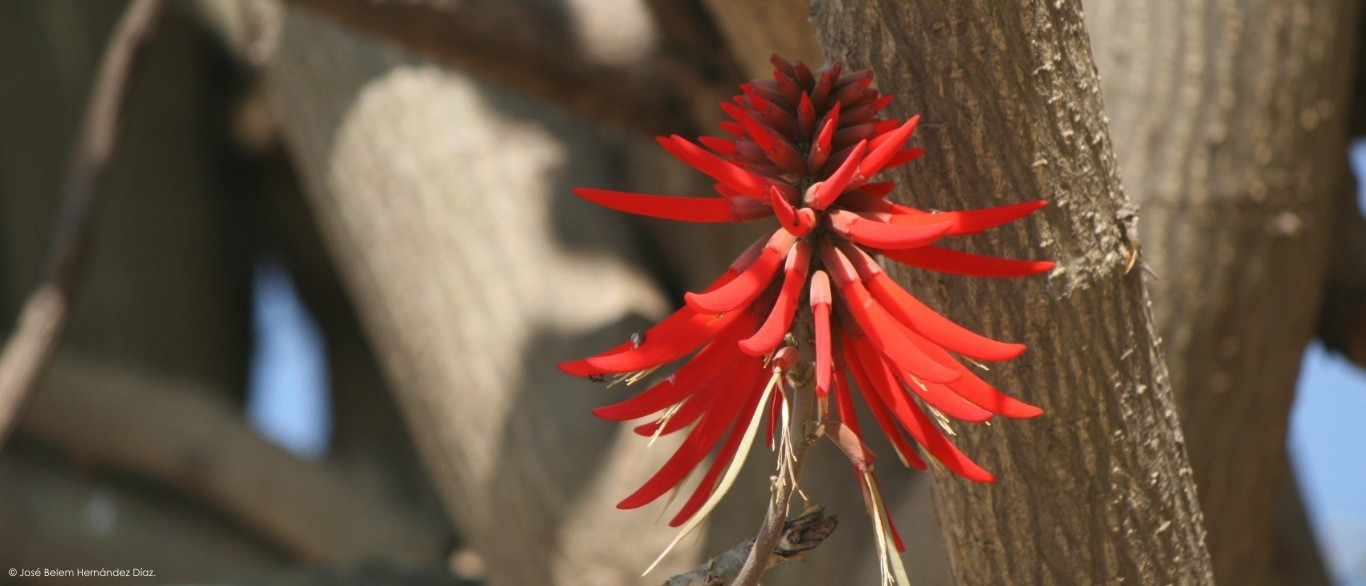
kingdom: Plantae
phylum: Tracheophyta
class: Magnoliopsida
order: Fabales
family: Fabaceae
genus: Erythrina
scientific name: Erythrina americana
